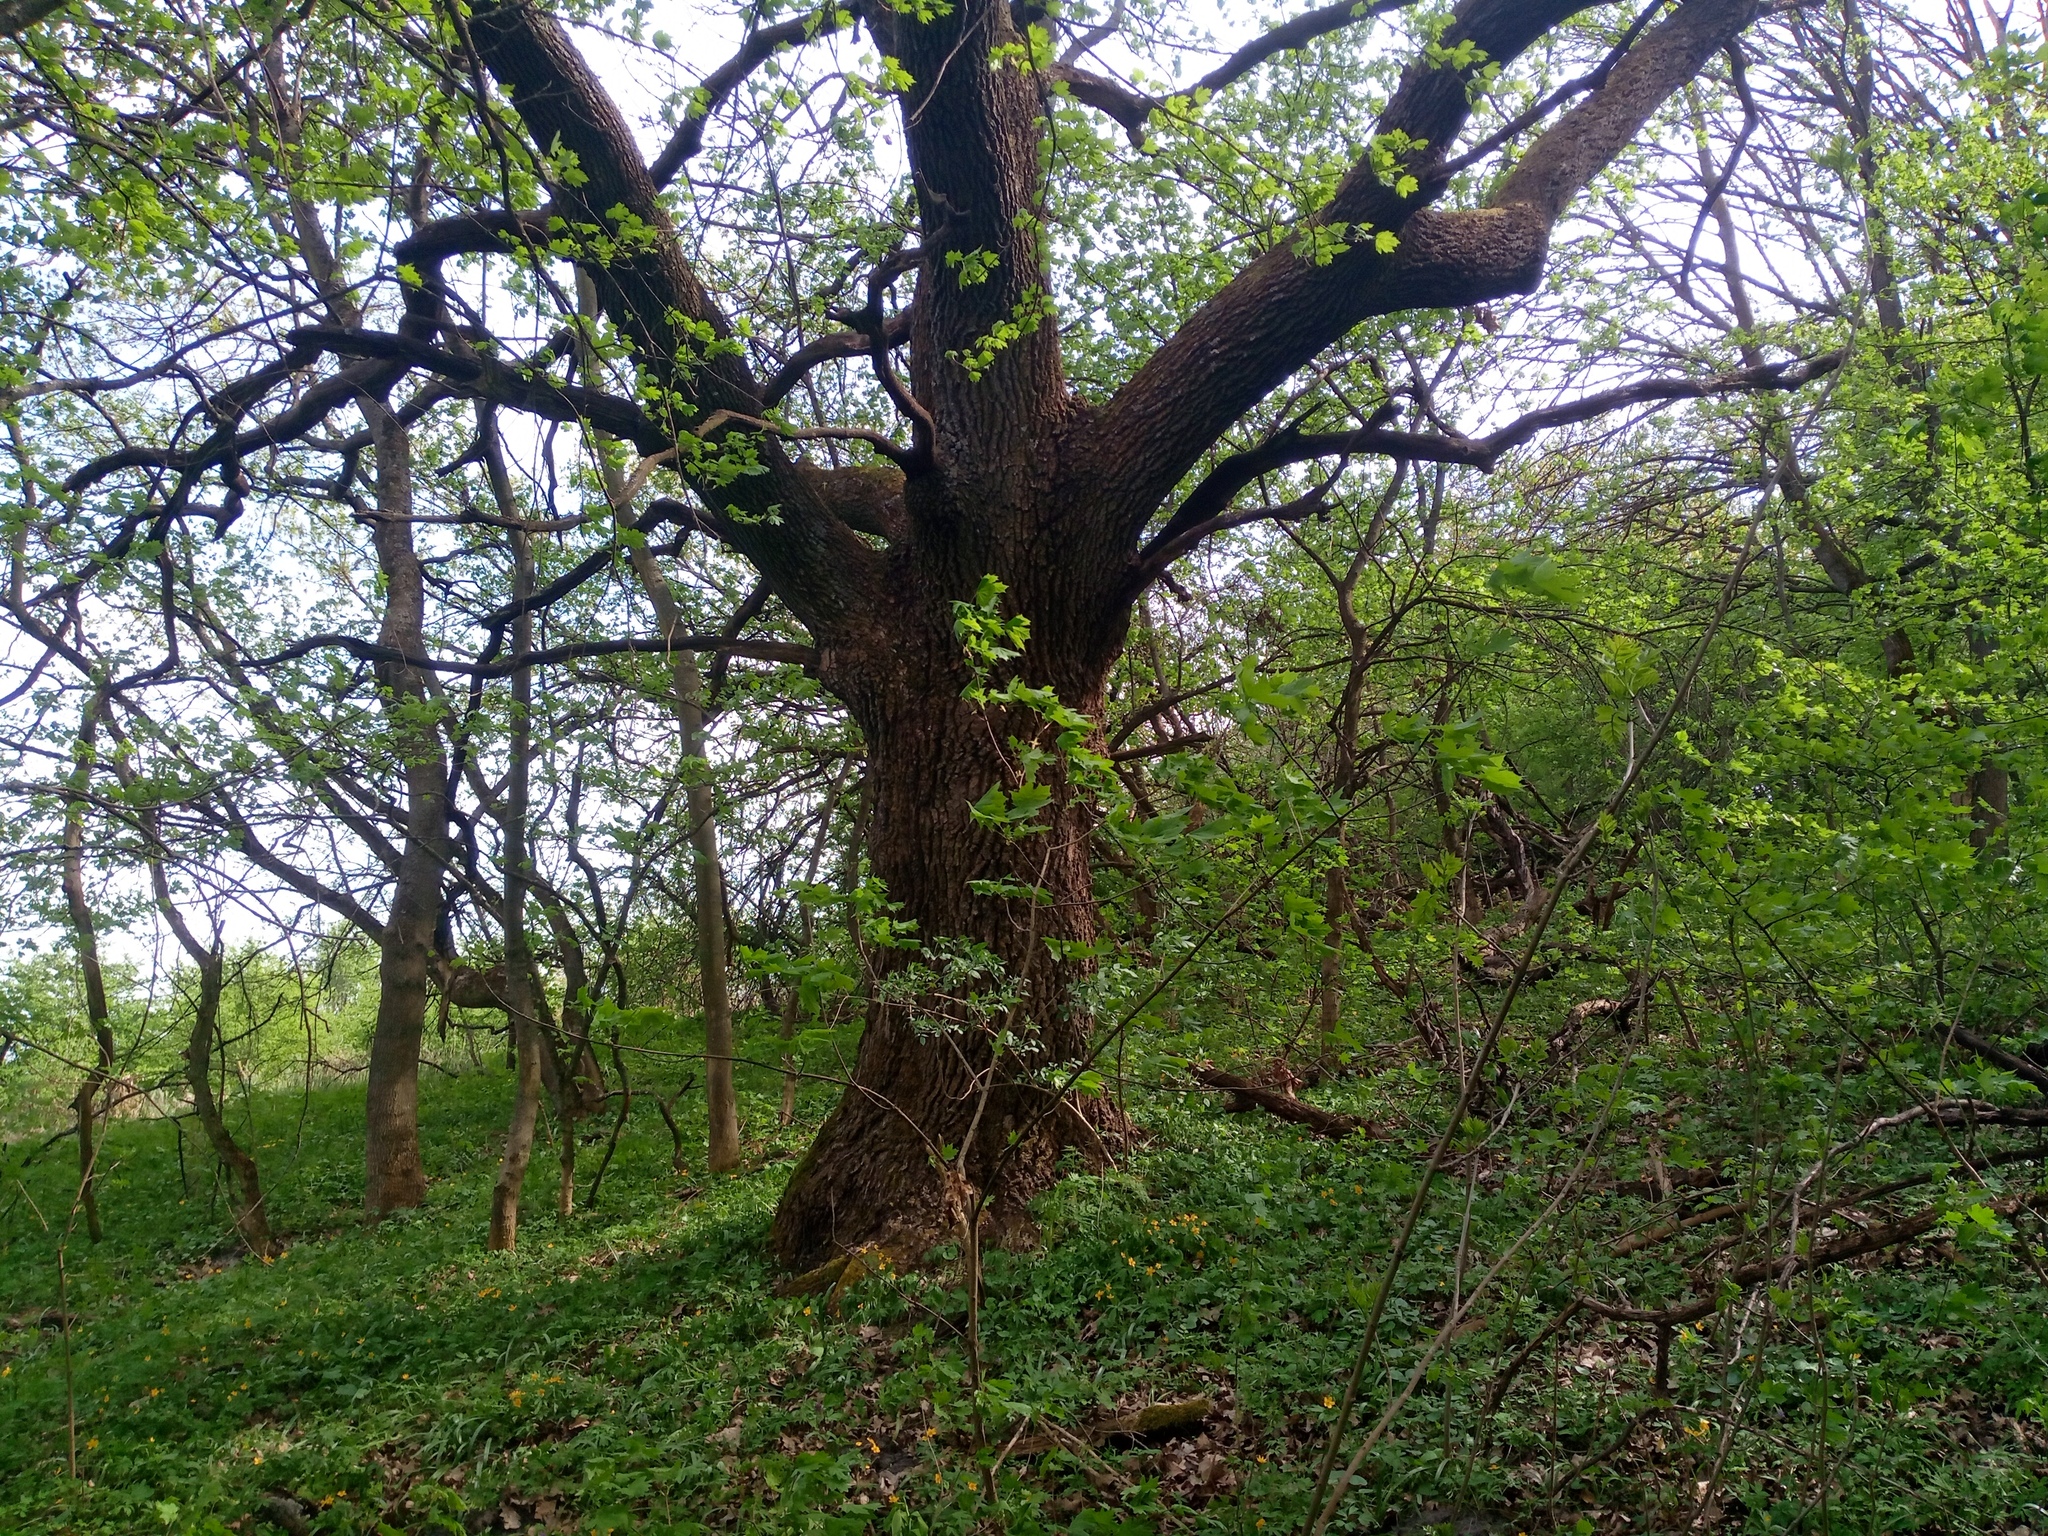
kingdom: Plantae
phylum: Tracheophyta
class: Magnoliopsida
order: Fagales
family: Fagaceae
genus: Quercus
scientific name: Quercus robur
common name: Pedunculate oak
